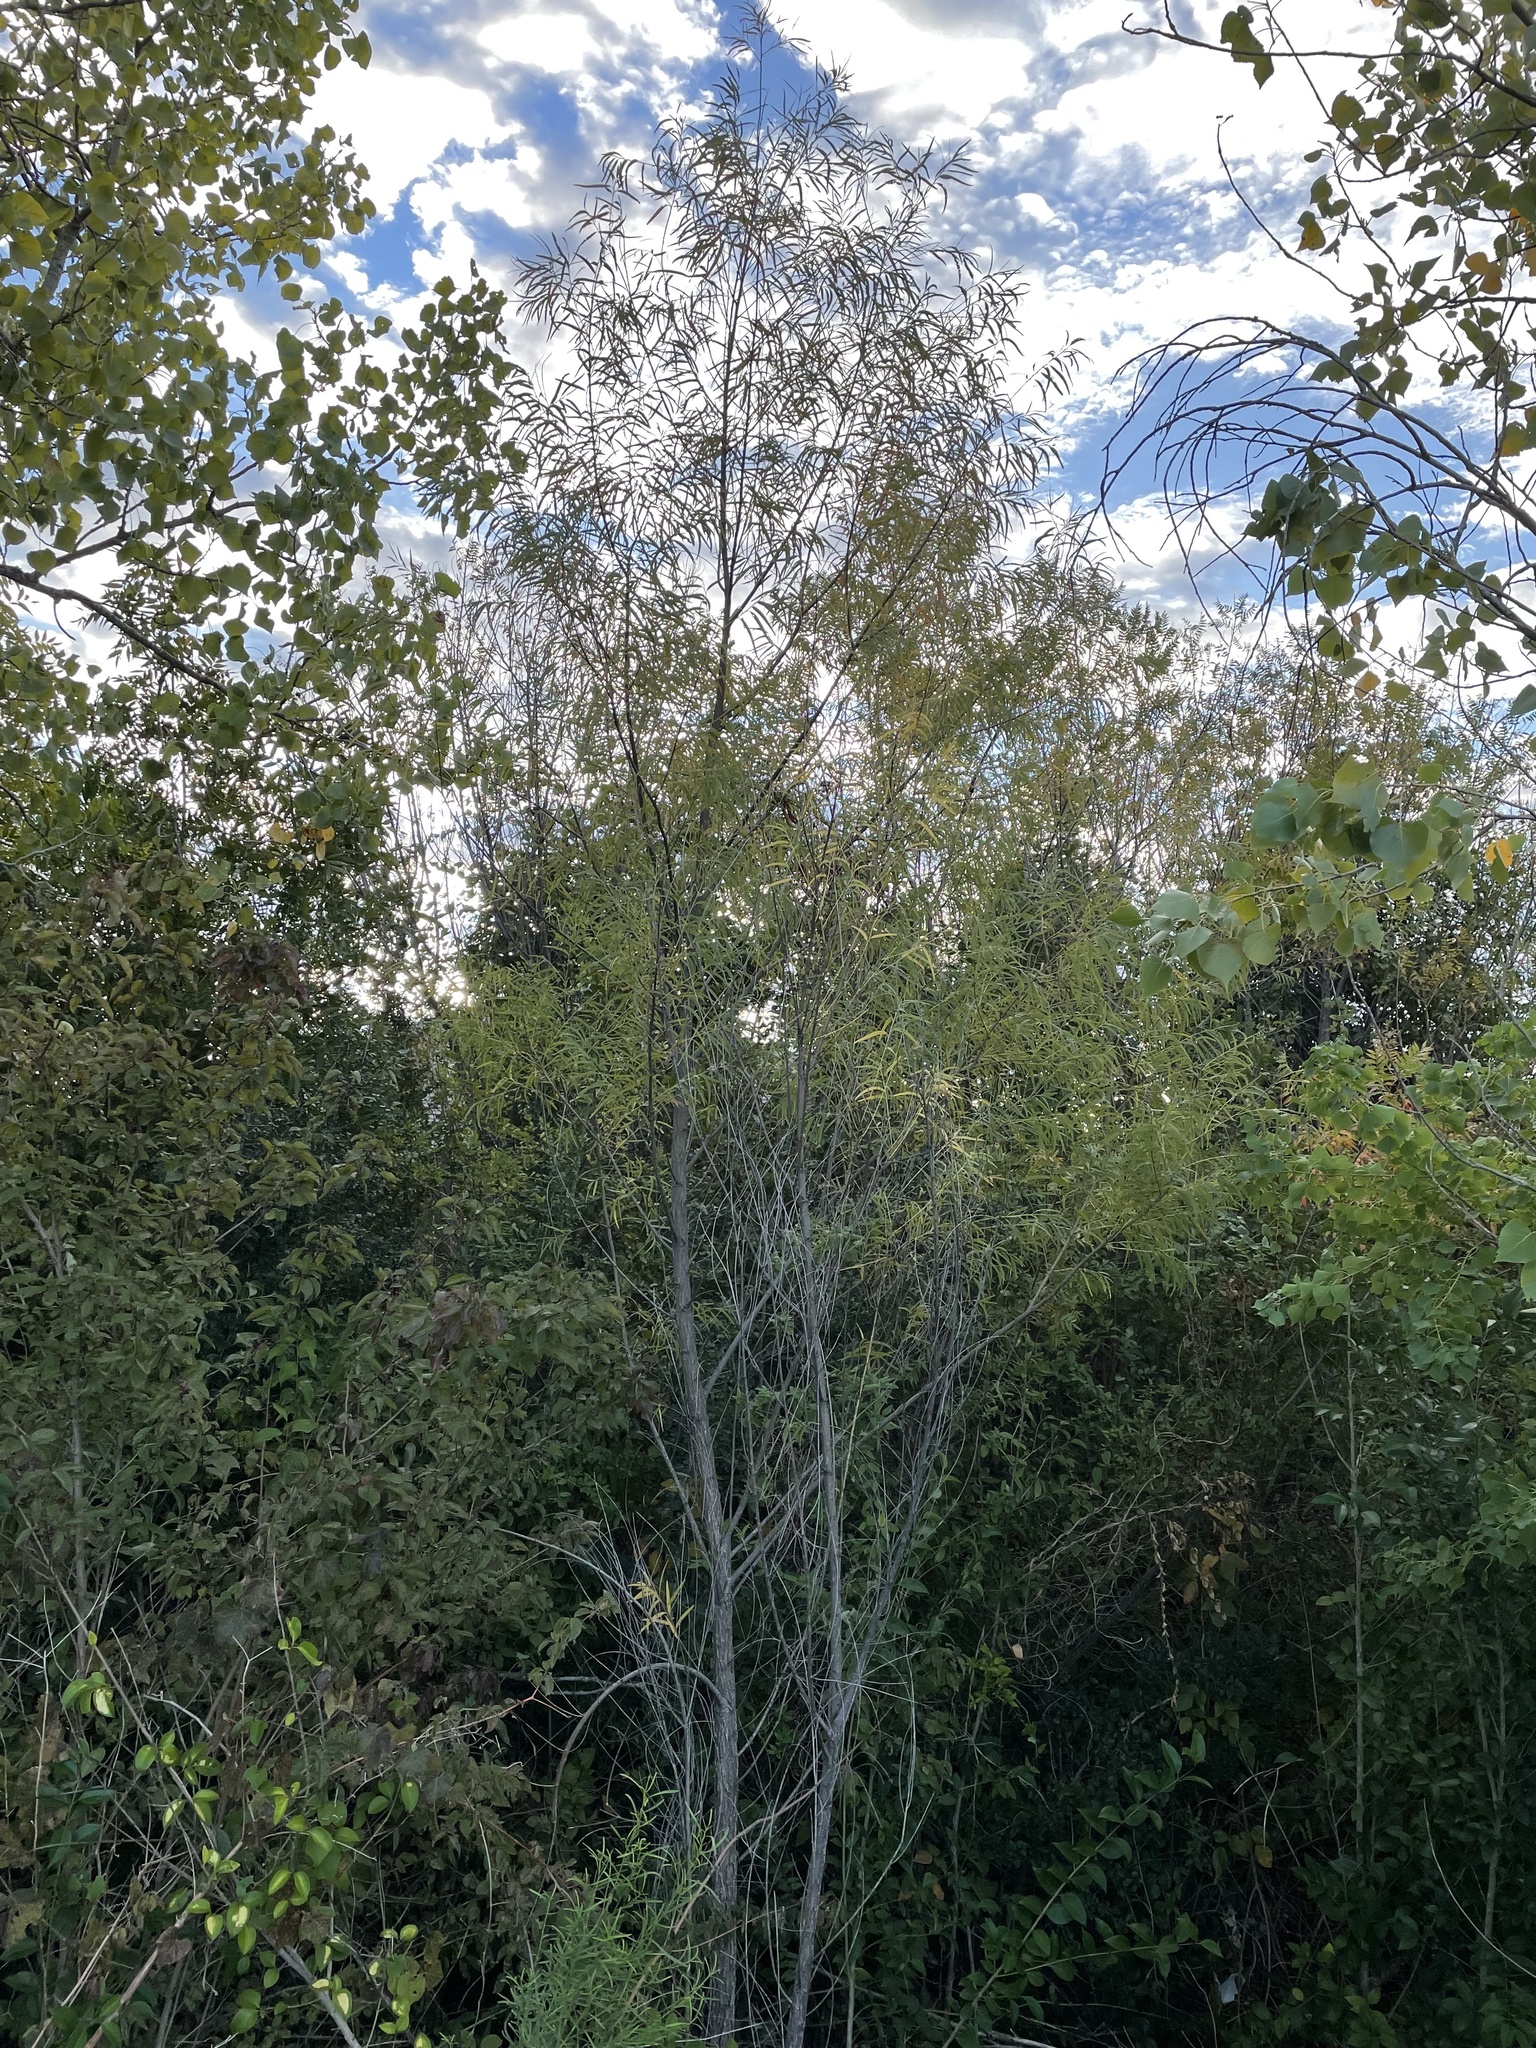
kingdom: Plantae
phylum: Tracheophyta
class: Magnoliopsida
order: Malpighiales
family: Salicaceae
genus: Salix
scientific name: Salix nigra
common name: Black willow
